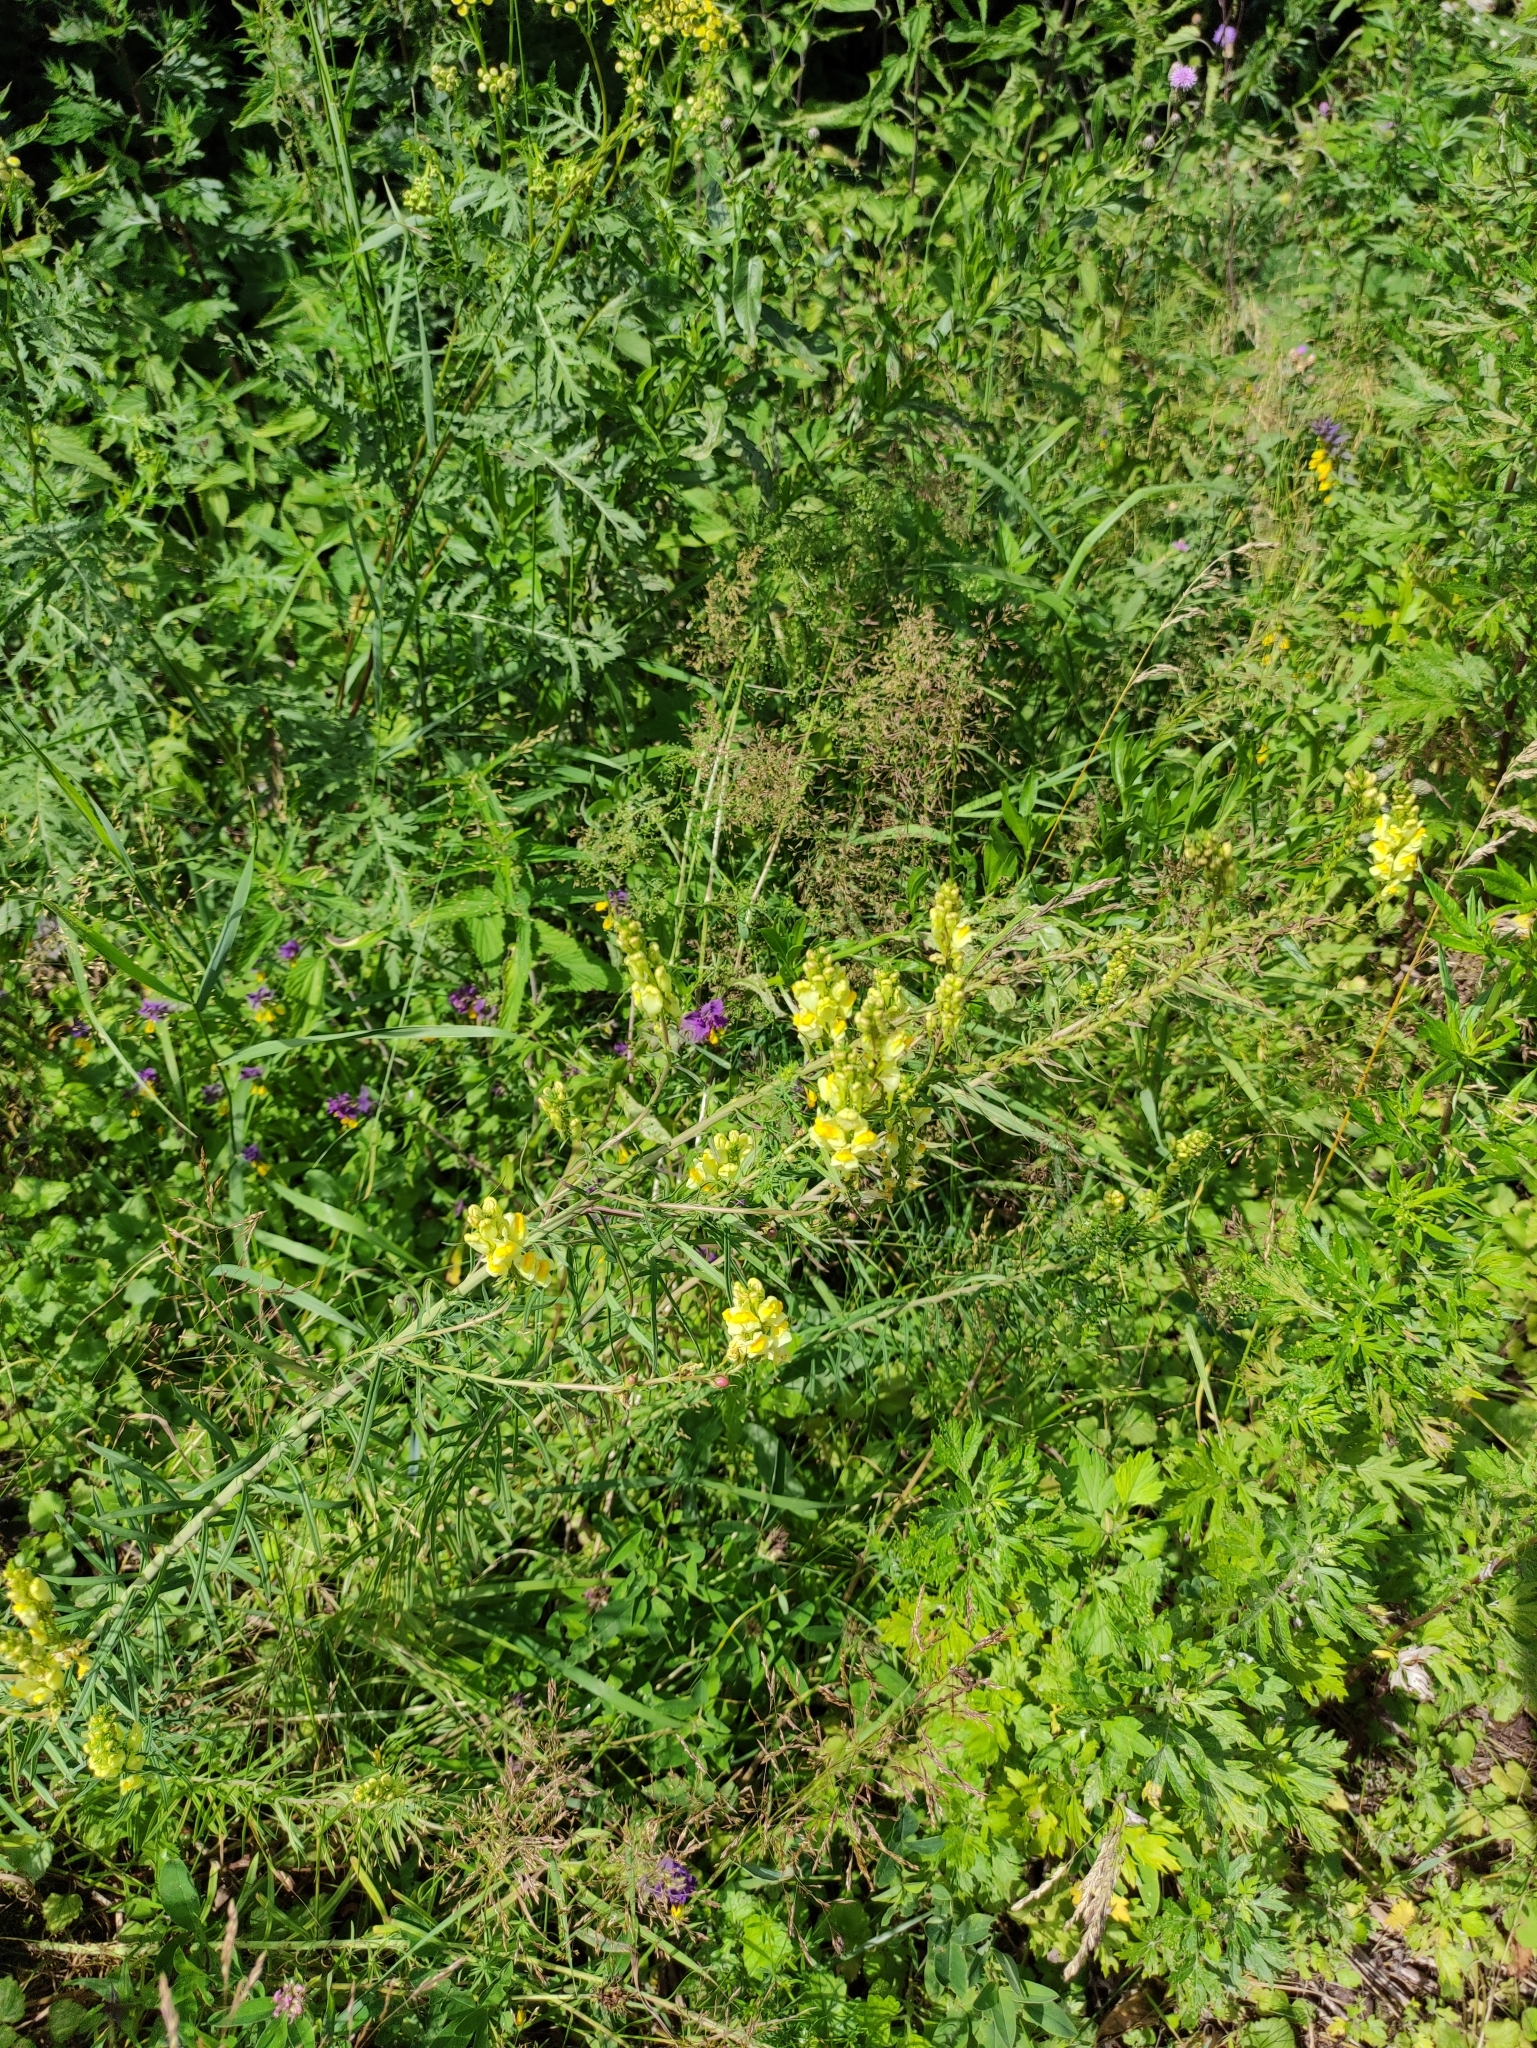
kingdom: Plantae
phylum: Tracheophyta
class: Magnoliopsida
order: Lamiales
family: Plantaginaceae
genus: Linaria
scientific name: Linaria vulgaris
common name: Butter and eggs
